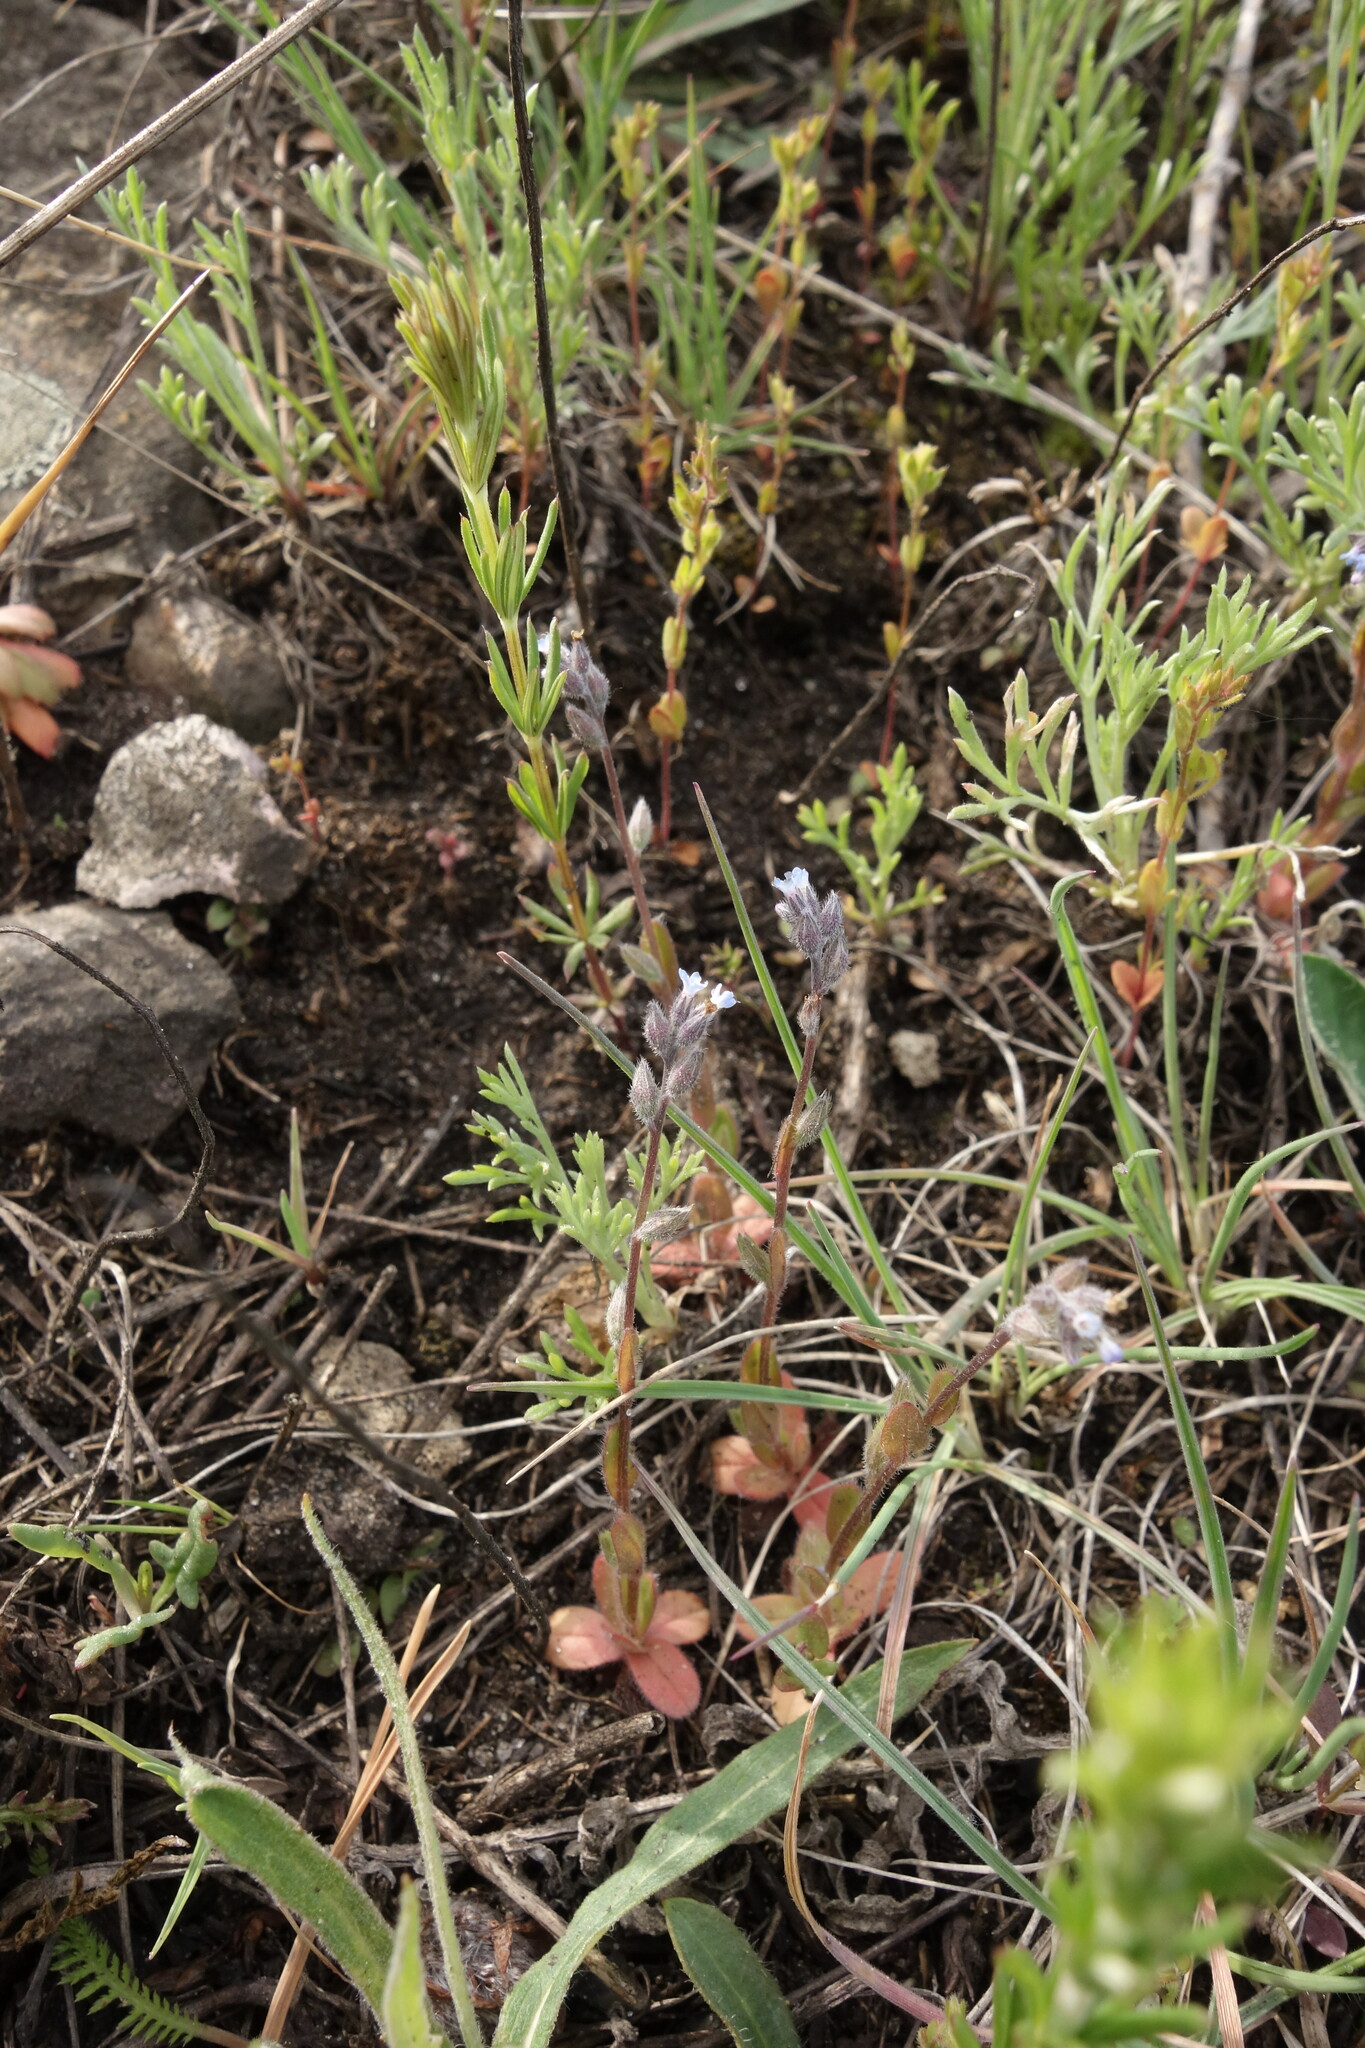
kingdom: Plantae
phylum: Tracheophyta
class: Magnoliopsida
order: Boraginales
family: Boraginaceae
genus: Myosotis
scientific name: Myosotis stricta
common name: Strict forget-me-not
